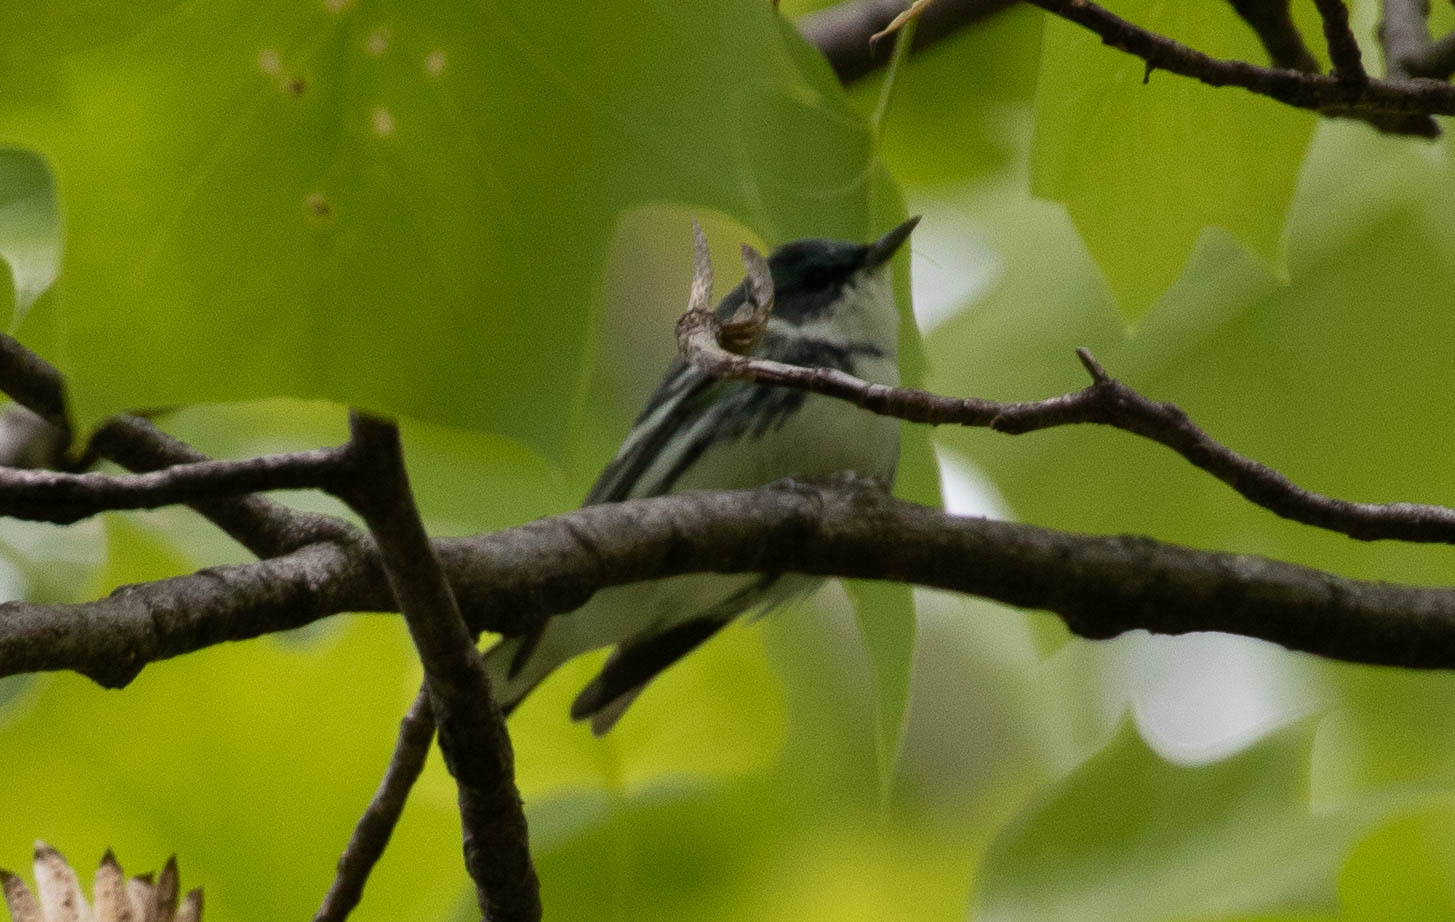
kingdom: Animalia
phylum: Chordata
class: Aves
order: Passeriformes
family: Parulidae
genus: Setophaga
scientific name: Setophaga cerulea
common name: Cerulean warbler
